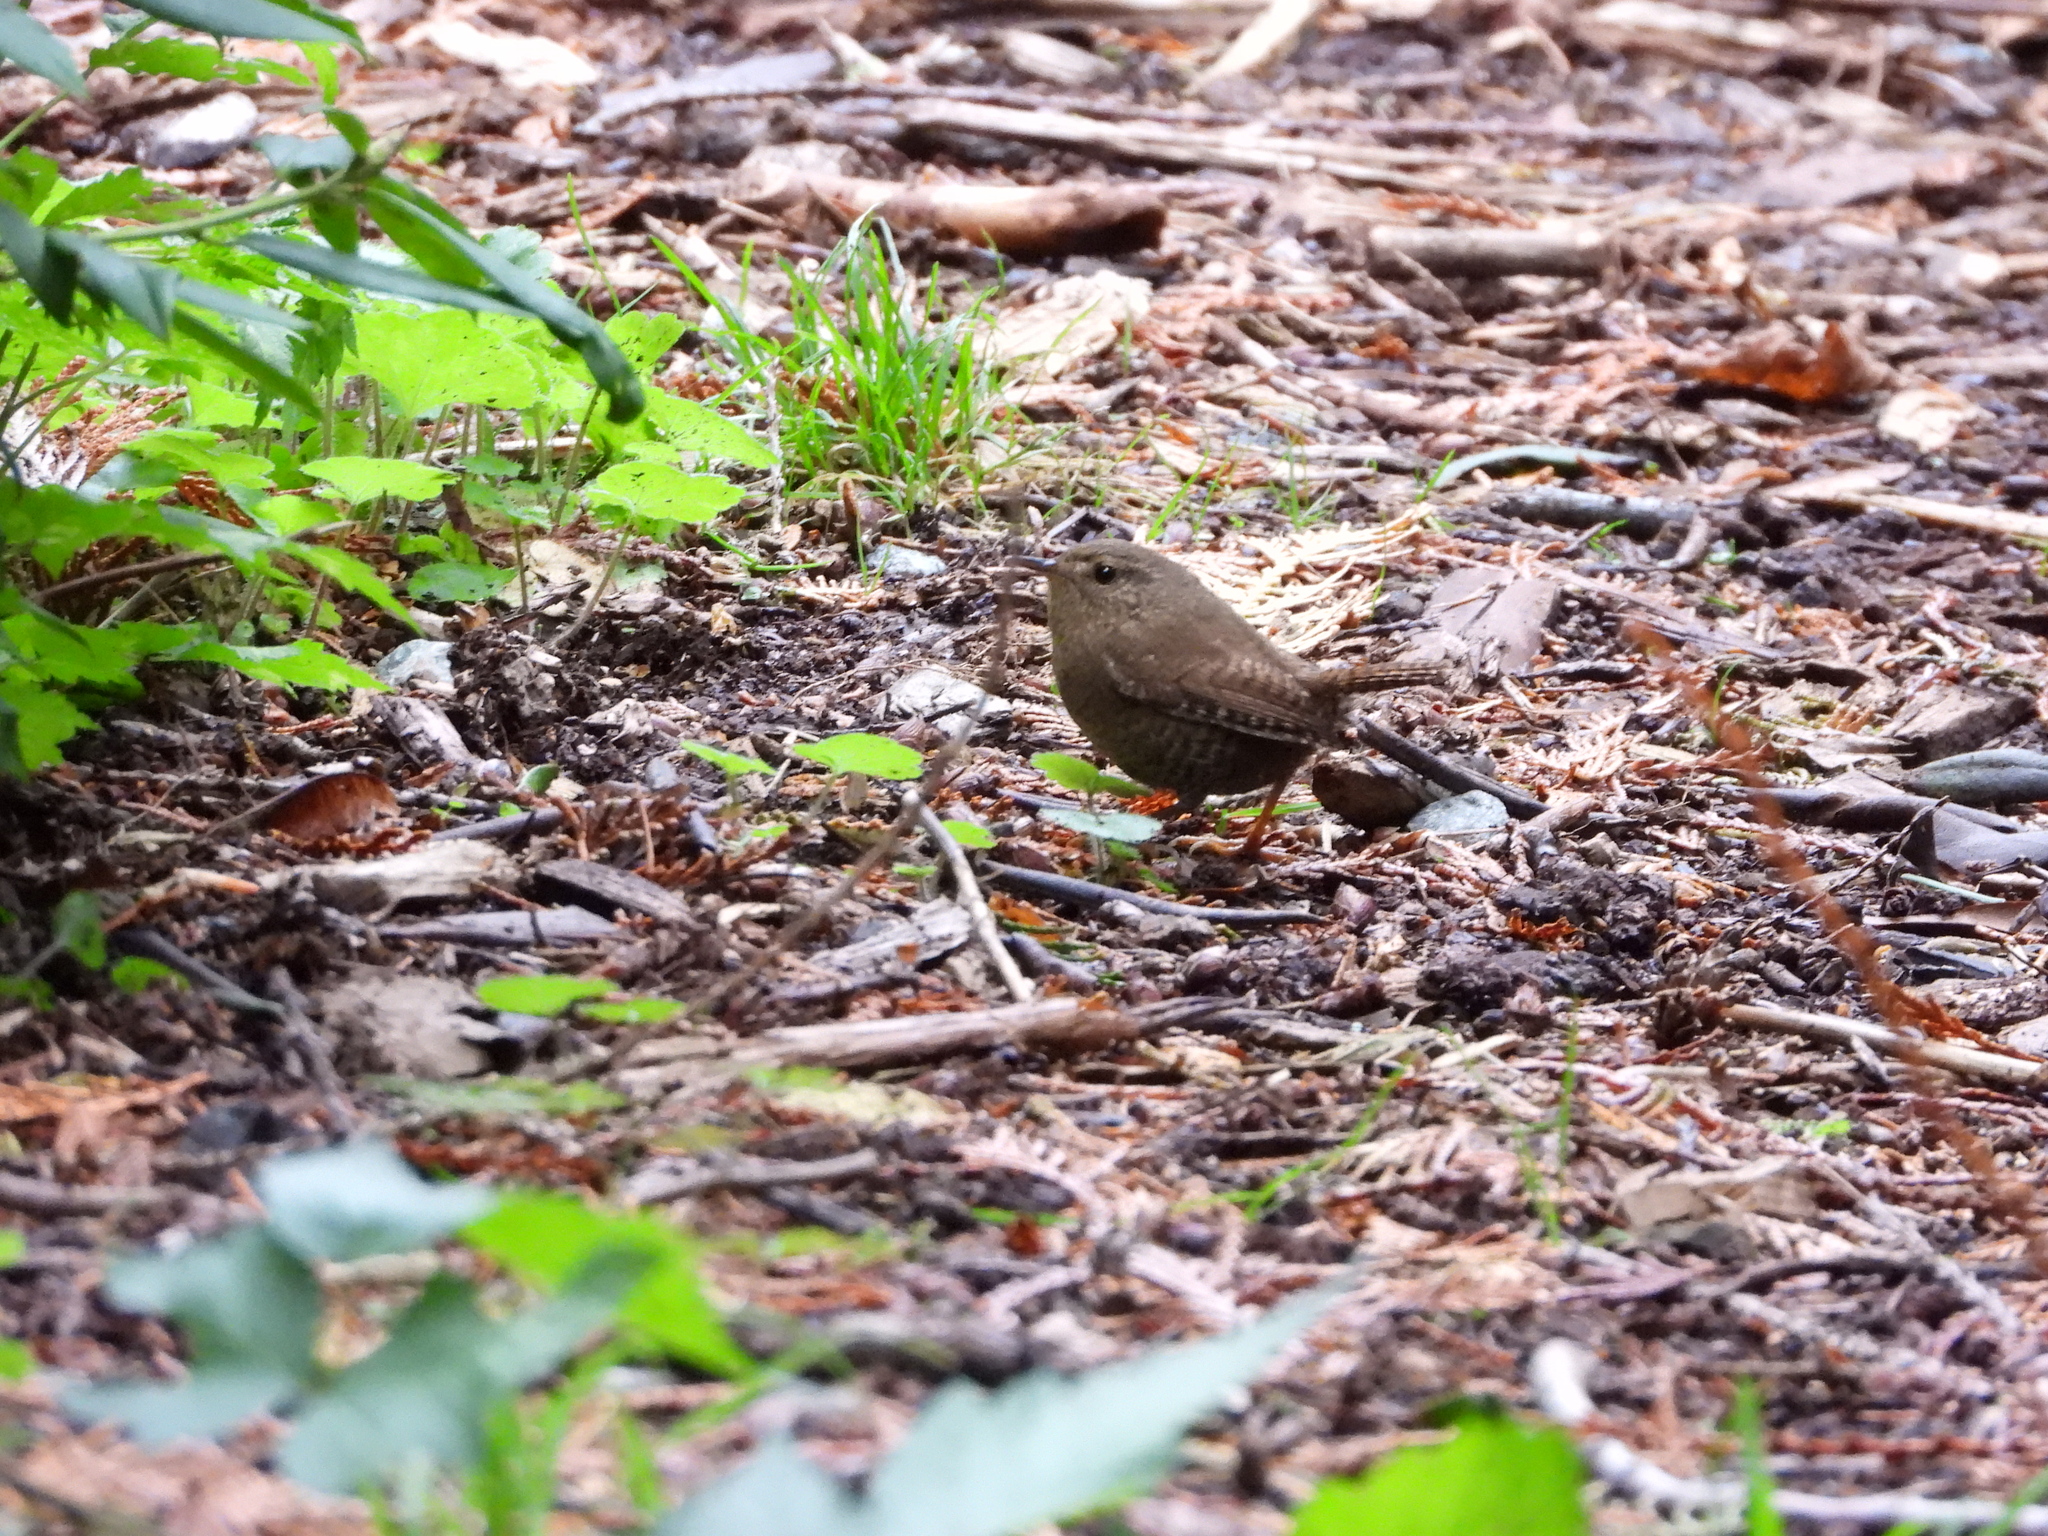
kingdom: Animalia
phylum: Chordata
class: Aves
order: Passeriformes
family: Troglodytidae
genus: Troglodytes
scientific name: Troglodytes pacificus
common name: Pacific wren
